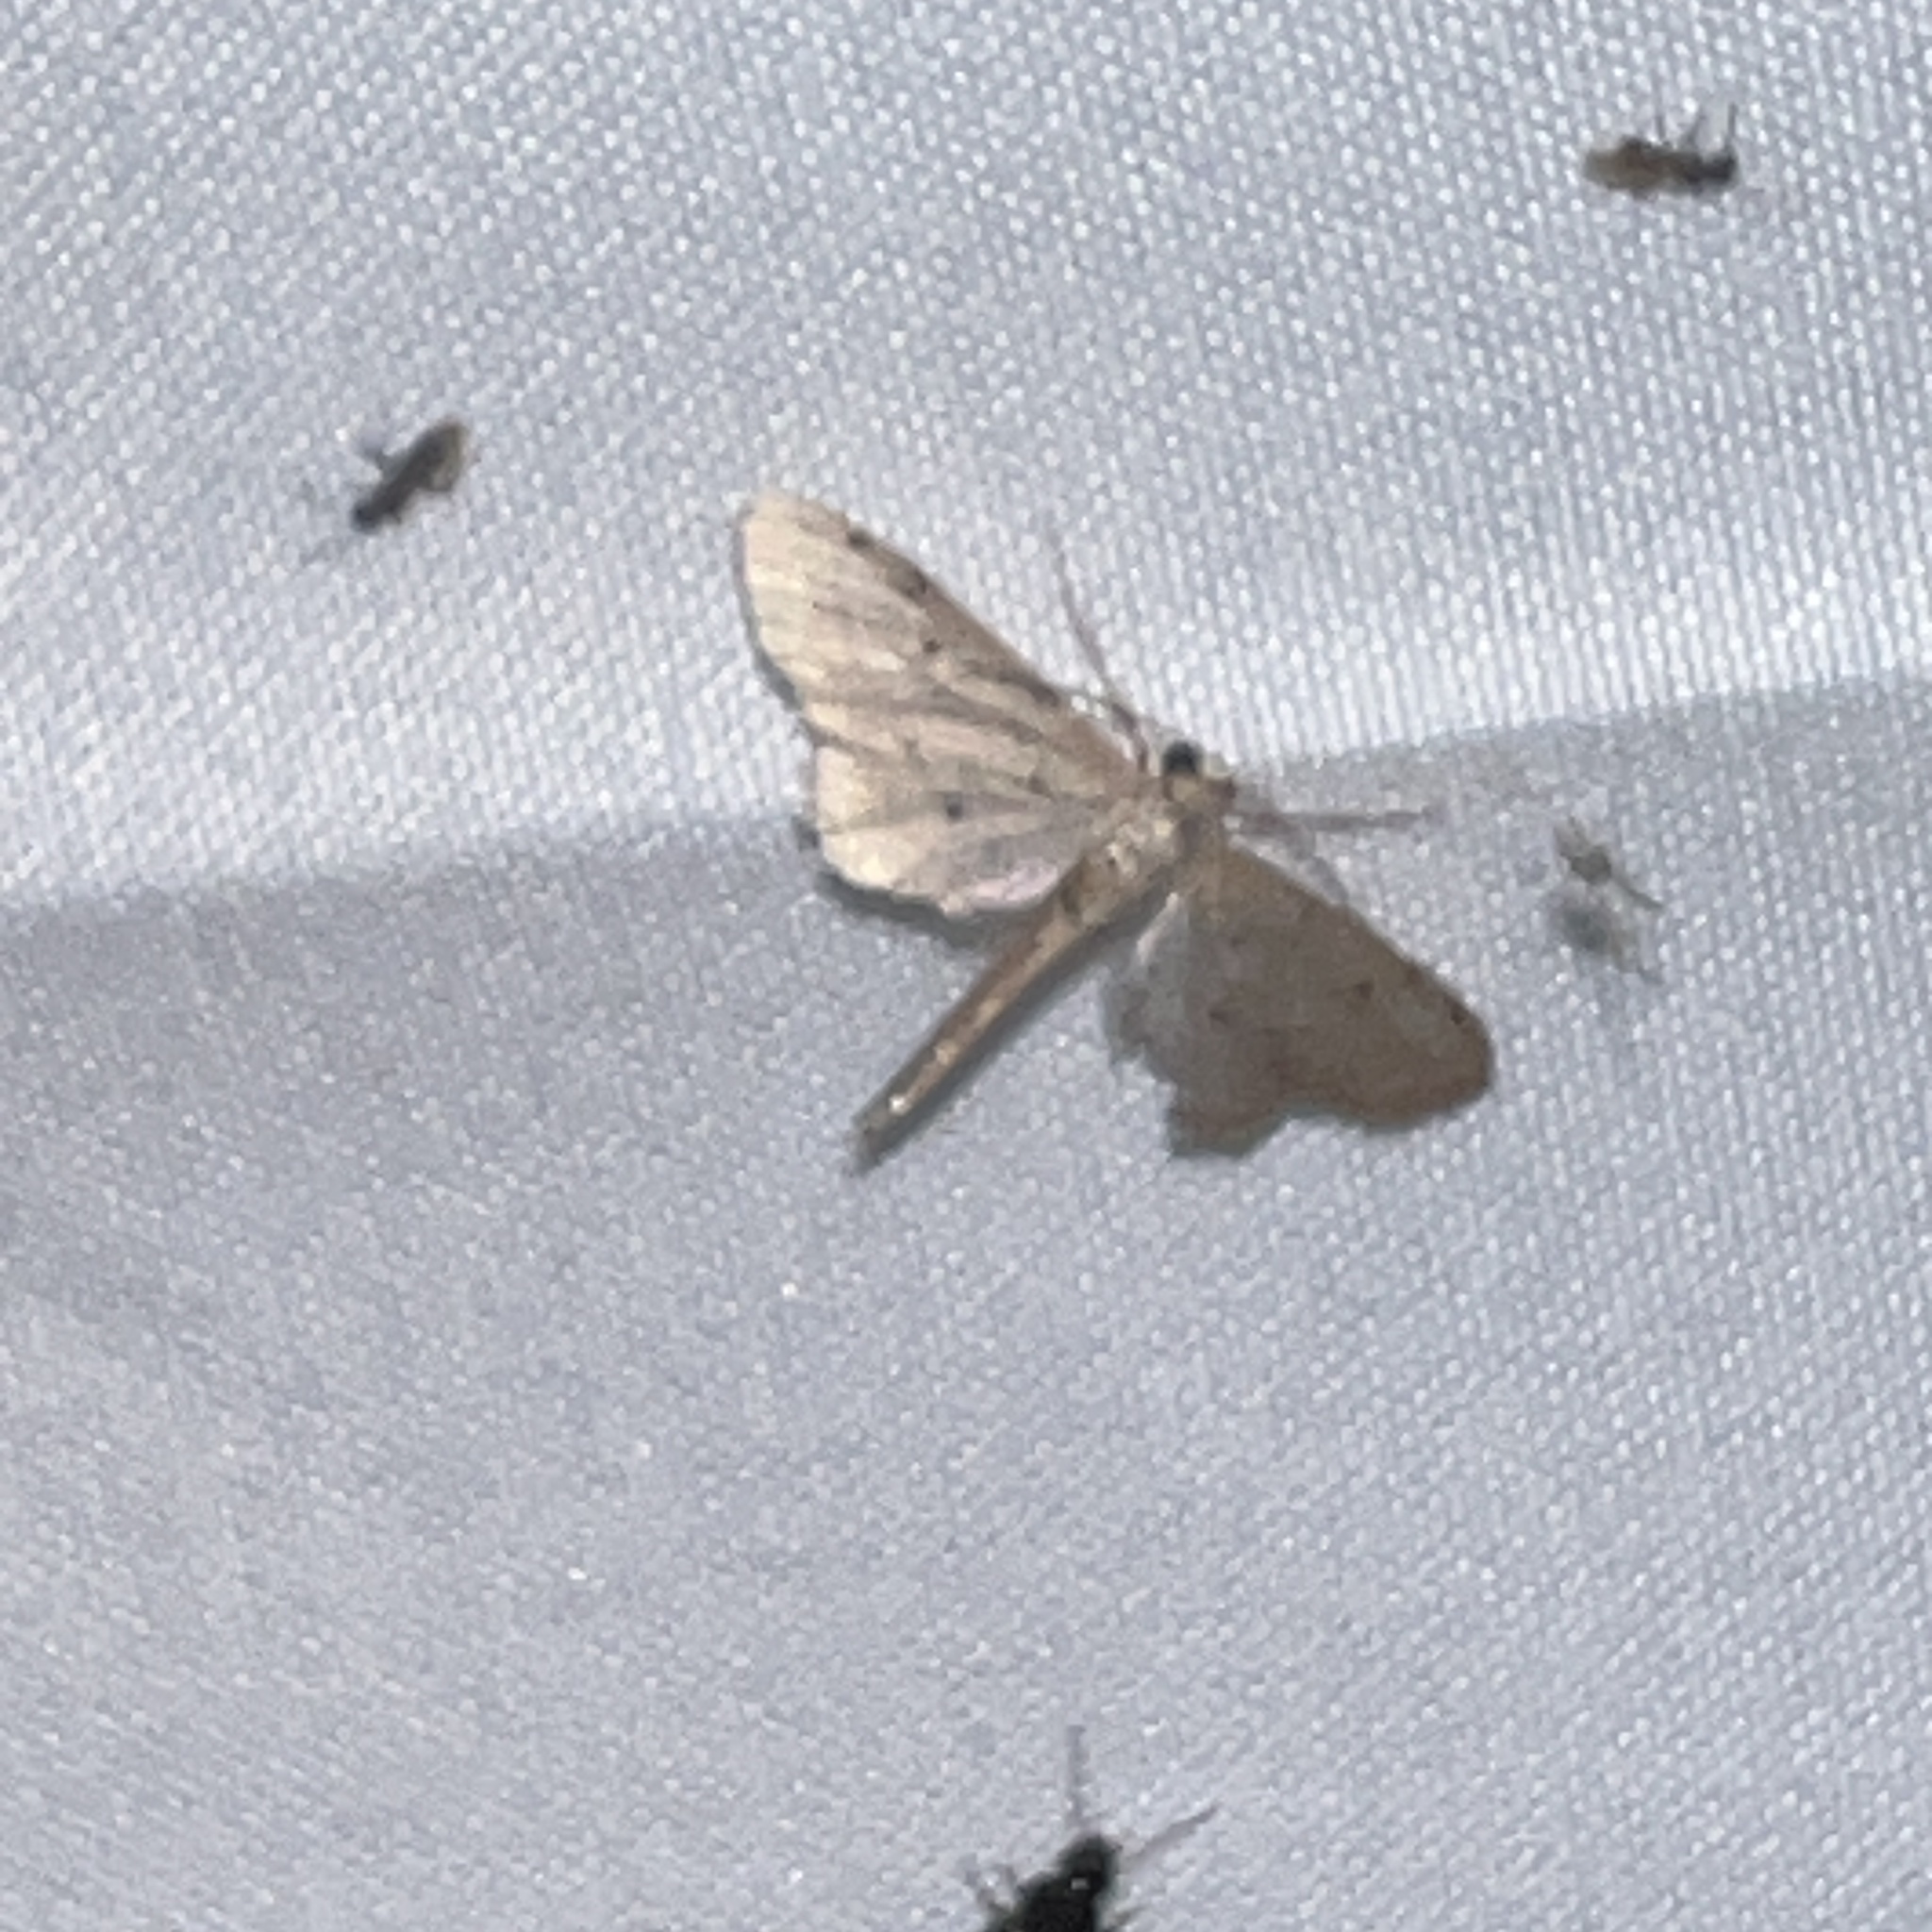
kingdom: Animalia
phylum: Arthropoda
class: Insecta
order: Lepidoptera
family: Geometridae
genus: Euacidalia
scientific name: Euacidalia brownsvillea
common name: Cankerworm
